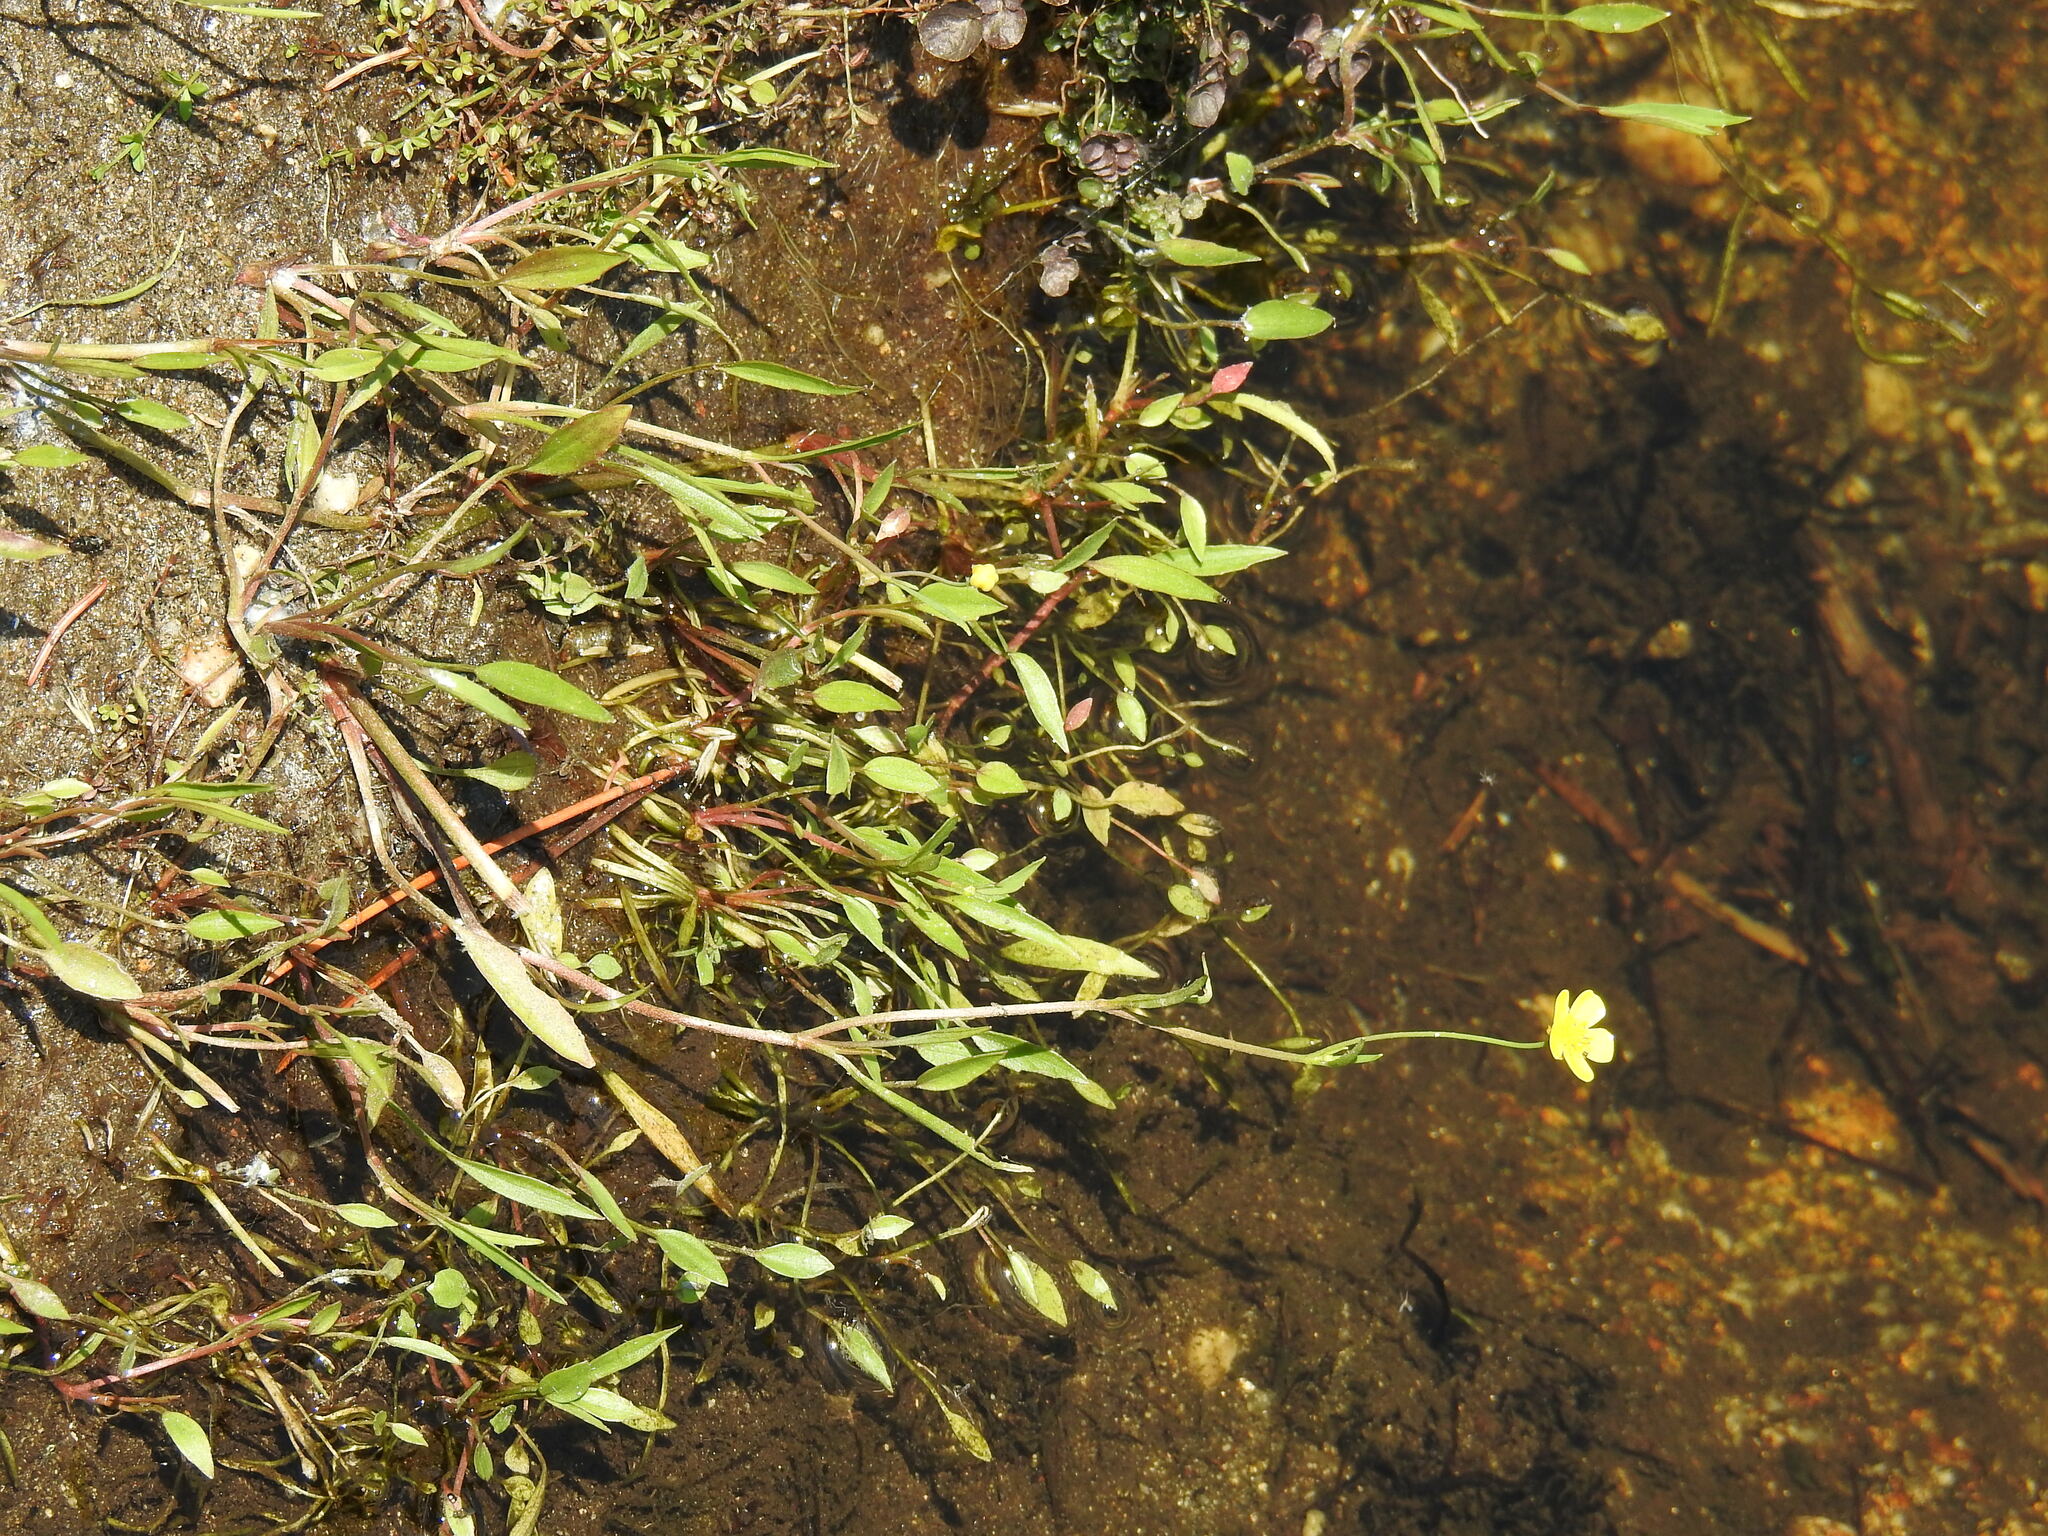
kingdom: Plantae
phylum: Tracheophyta
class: Magnoliopsida
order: Ranunculales
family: Ranunculaceae
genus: Ranunculus
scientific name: Ranunculus flammula
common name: Lesser spearwort
